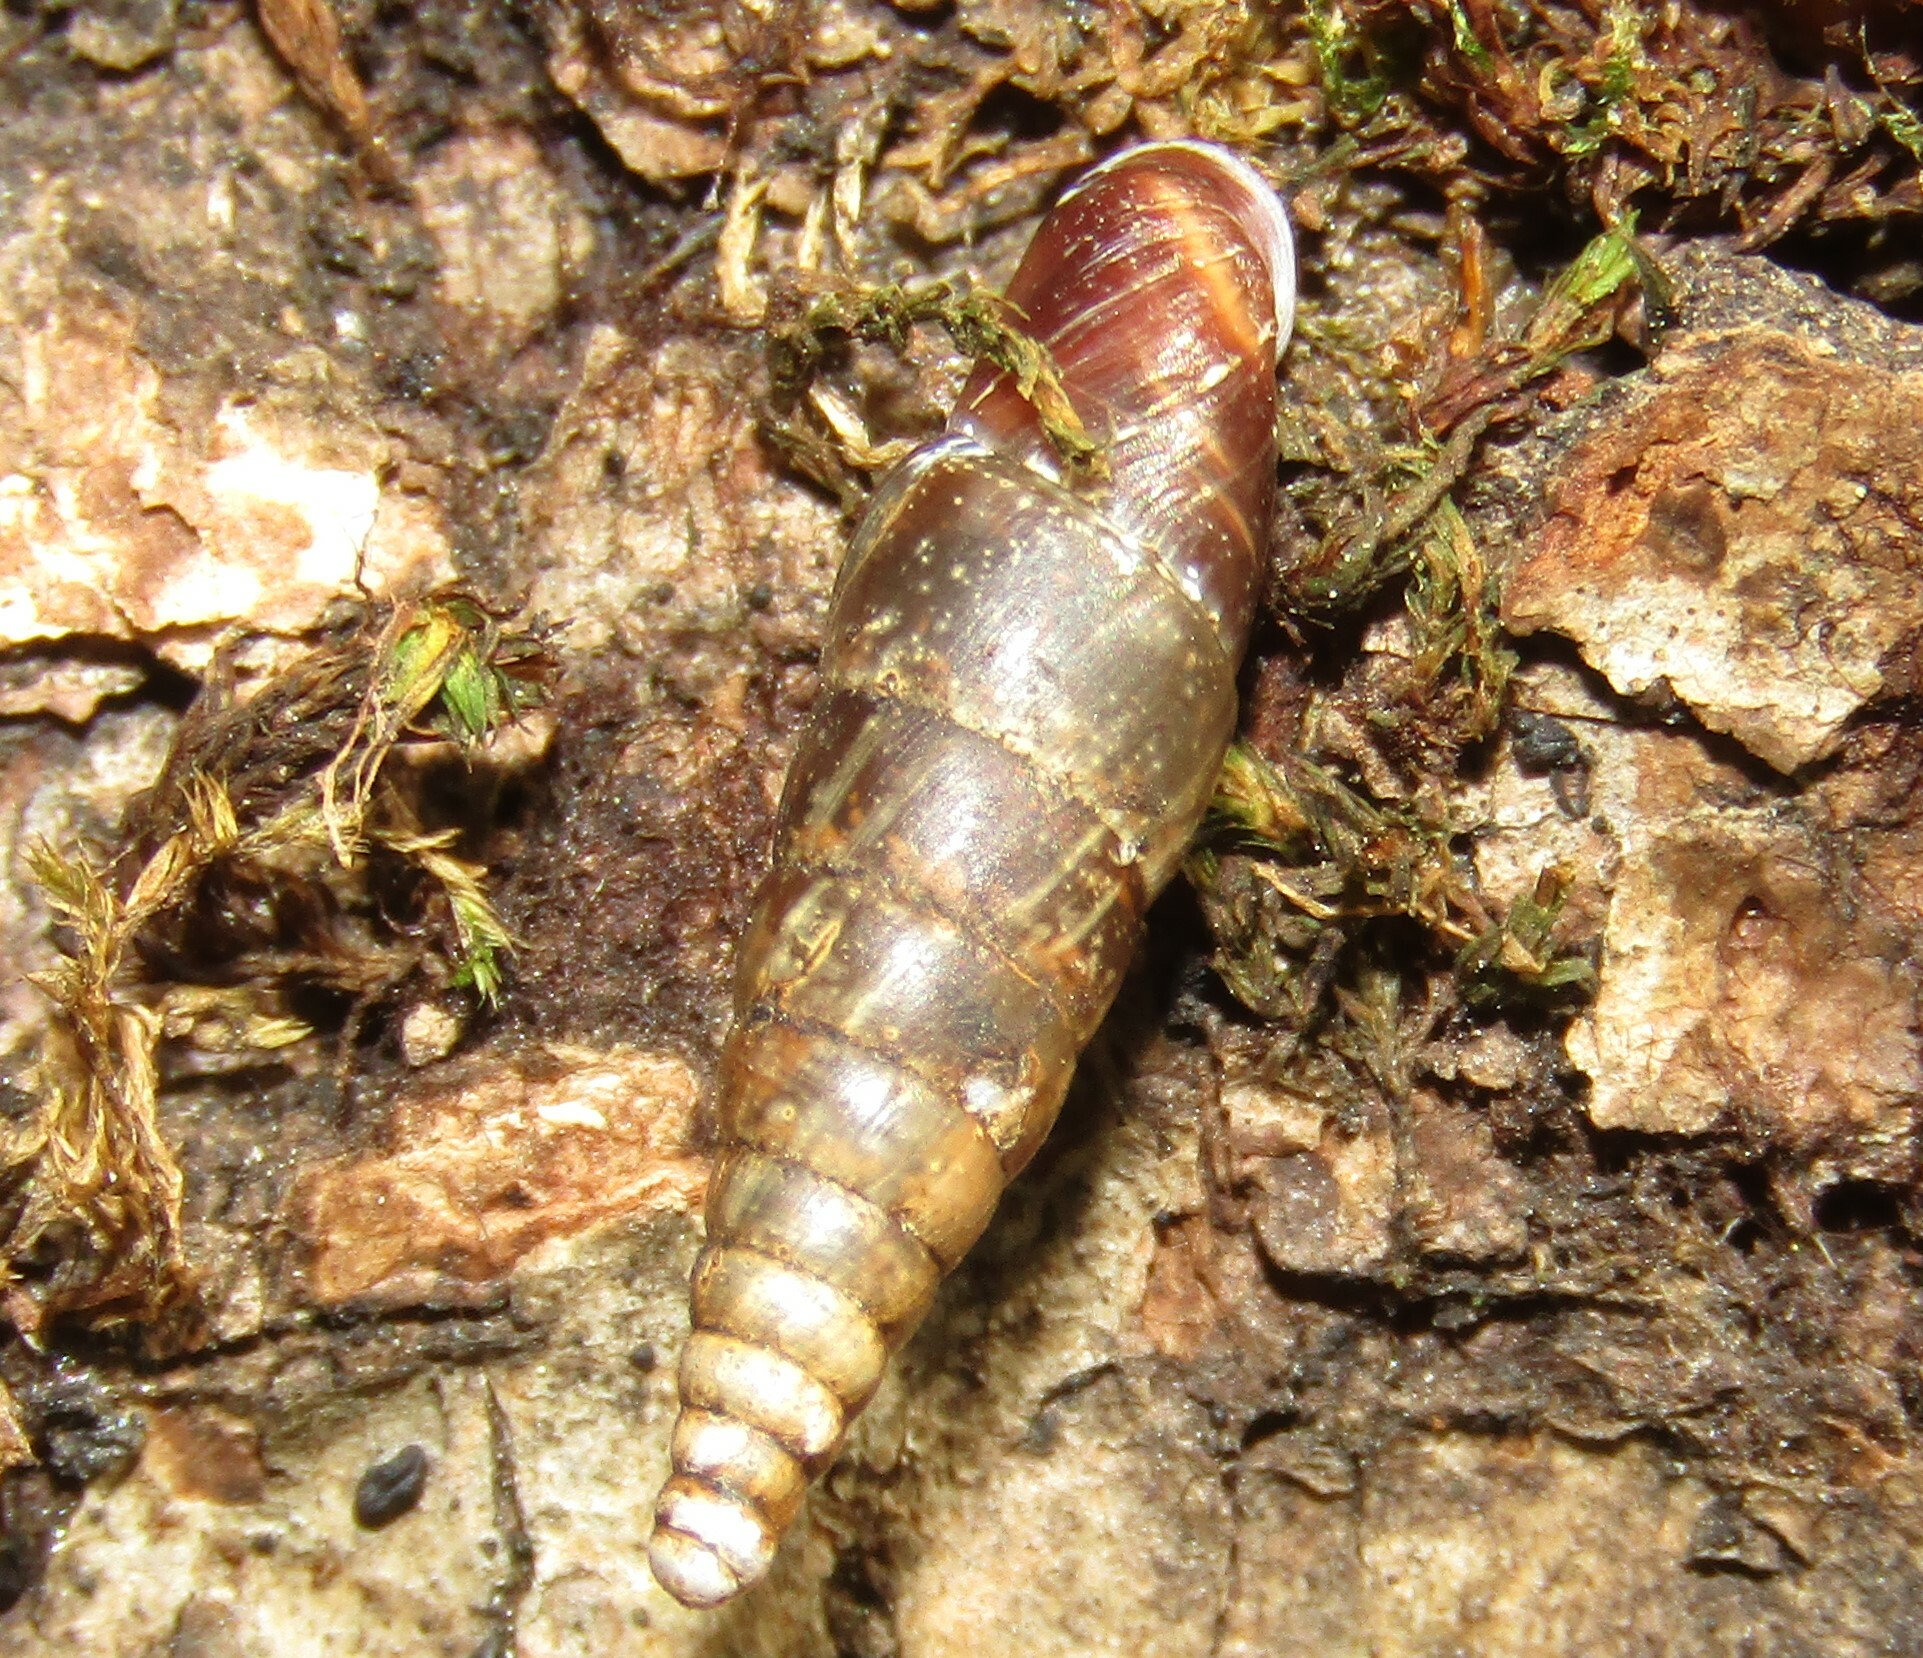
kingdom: Animalia
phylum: Mollusca
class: Gastropoda
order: Stylommatophora
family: Clausiliidae
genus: Cochlodina
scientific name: Cochlodina laminata
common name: Plaited door snail
